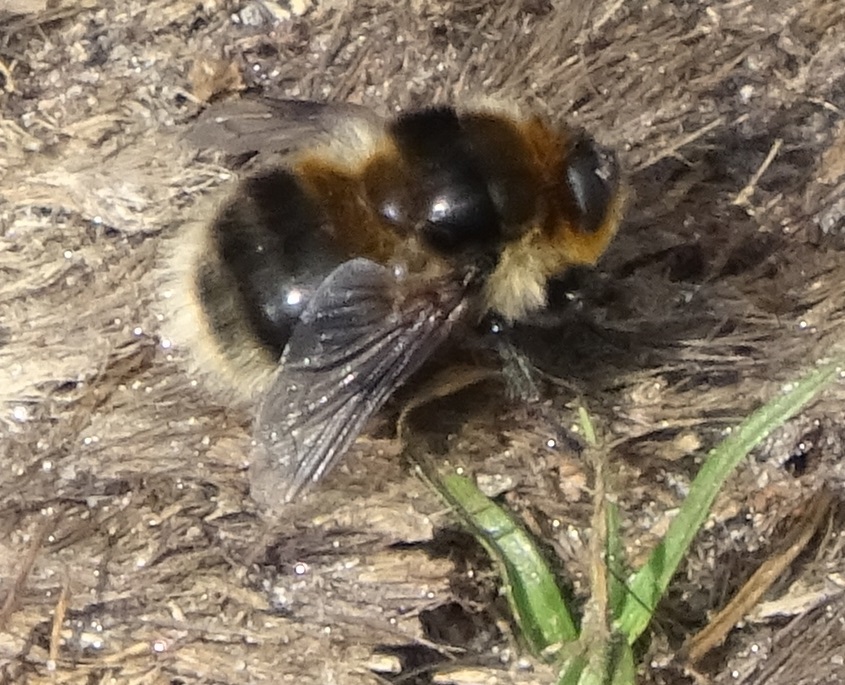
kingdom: Animalia
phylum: Arthropoda
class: Insecta
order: Diptera
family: Oestridae
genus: Cephenemyia
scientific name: Cephenemyia auribarbis
